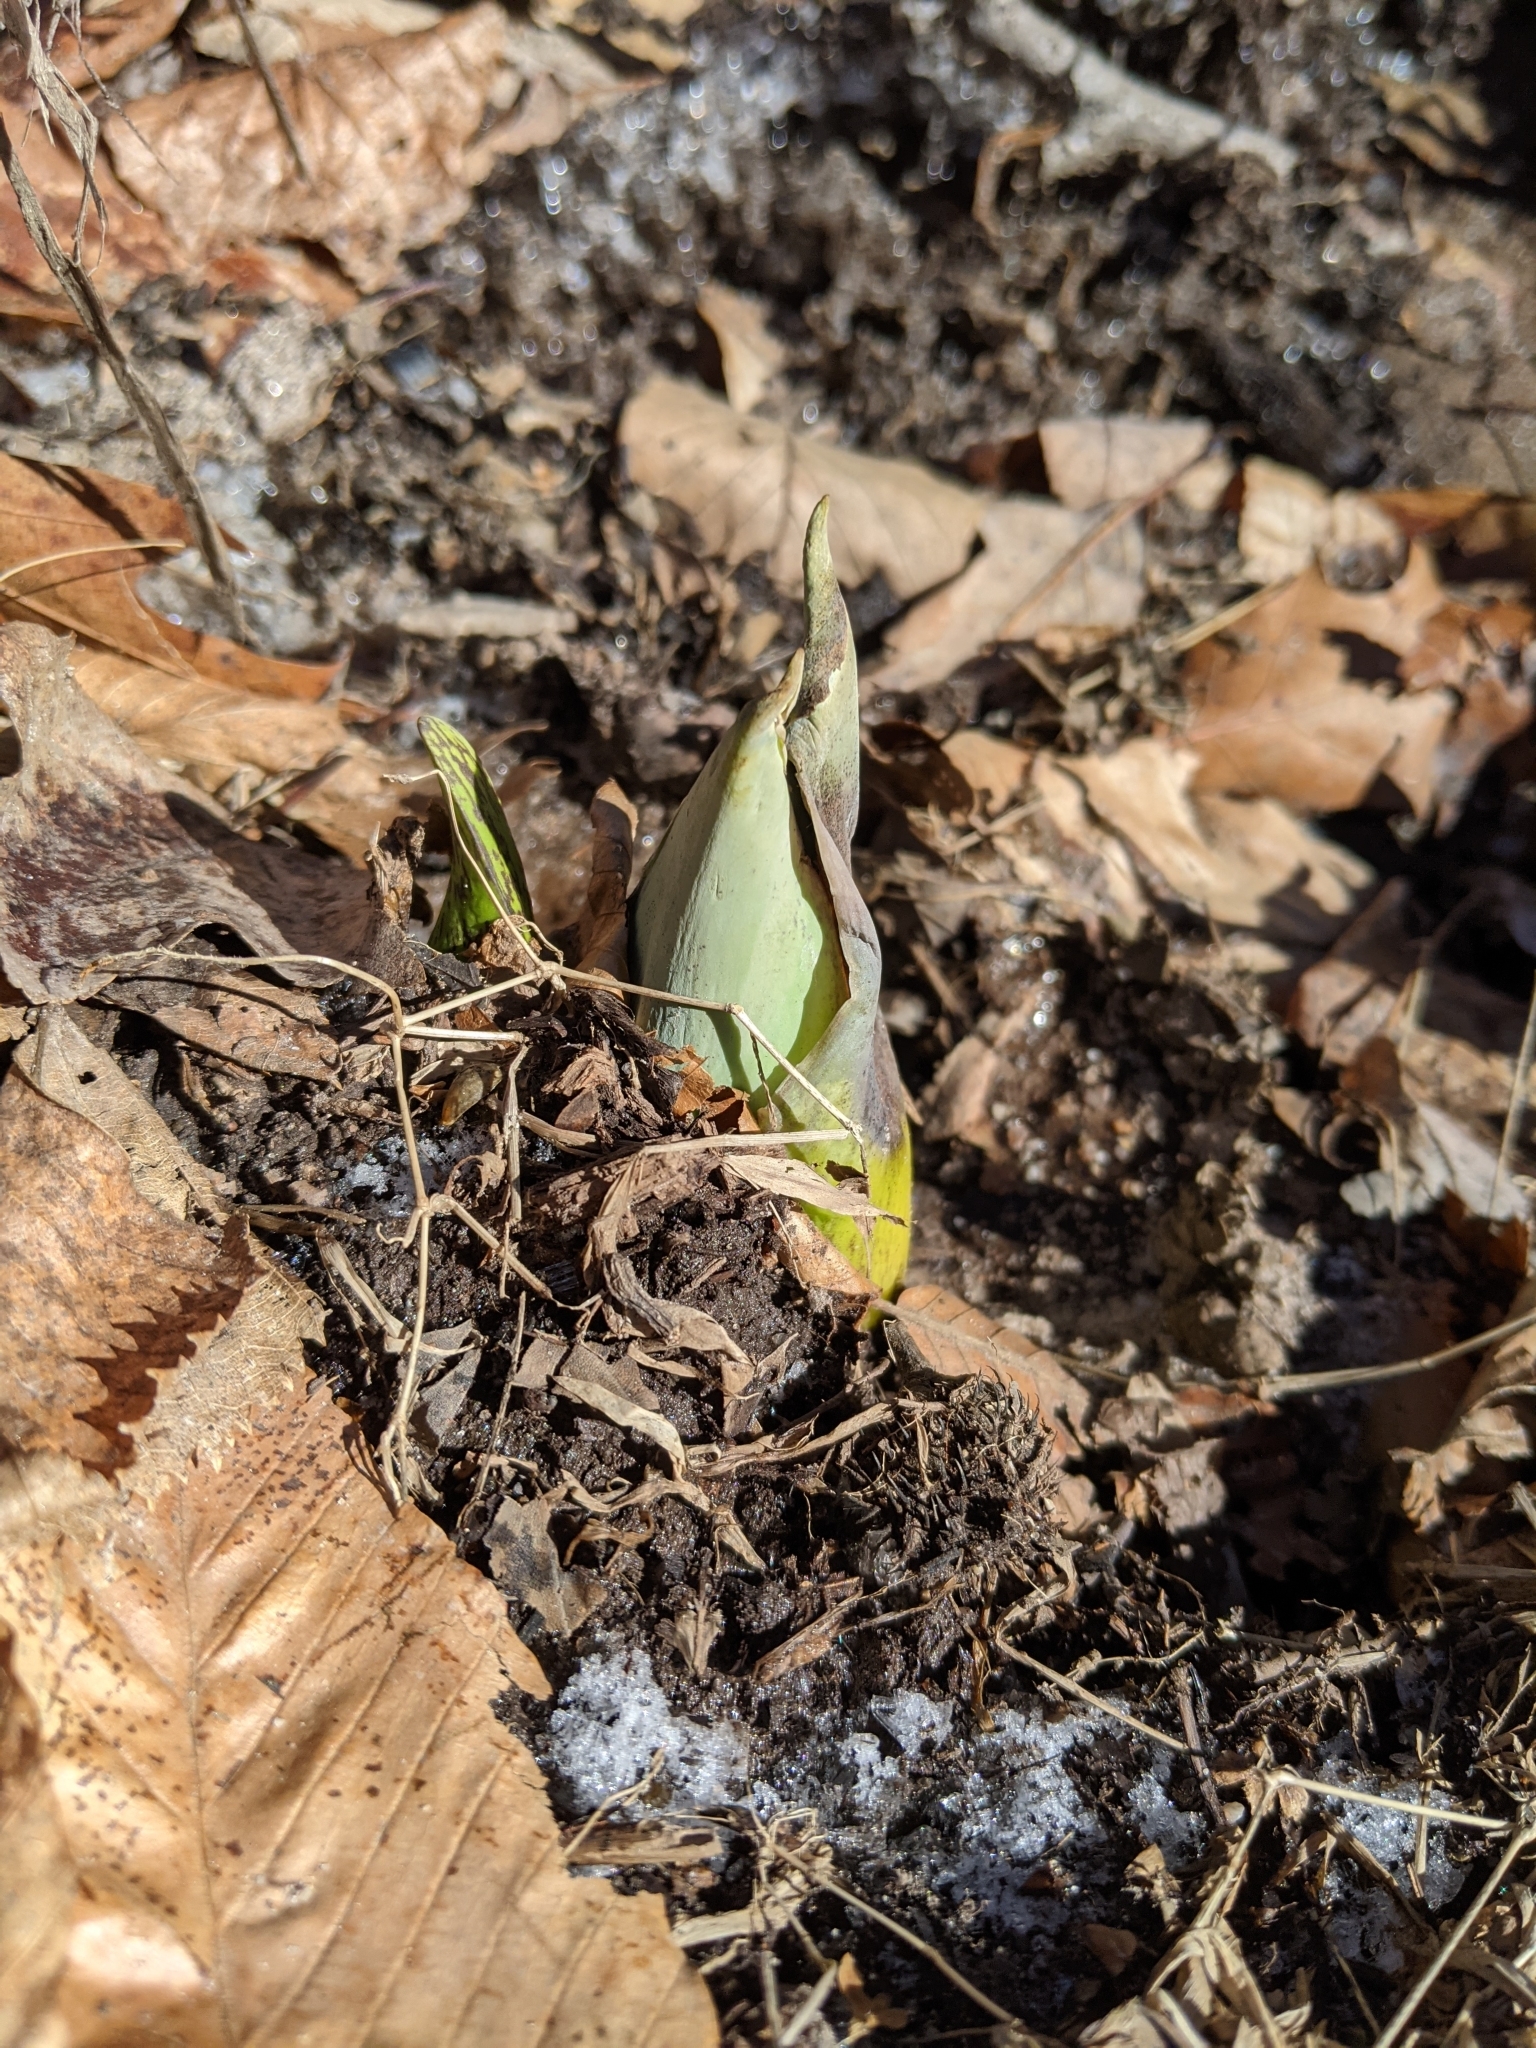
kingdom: Plantae
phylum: Tracheophyta
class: Liliopsida
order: Alismatales
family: Araceae
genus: Symplocarpus
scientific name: Symplocarpus foetidus
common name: Eastern skunk cabbage
